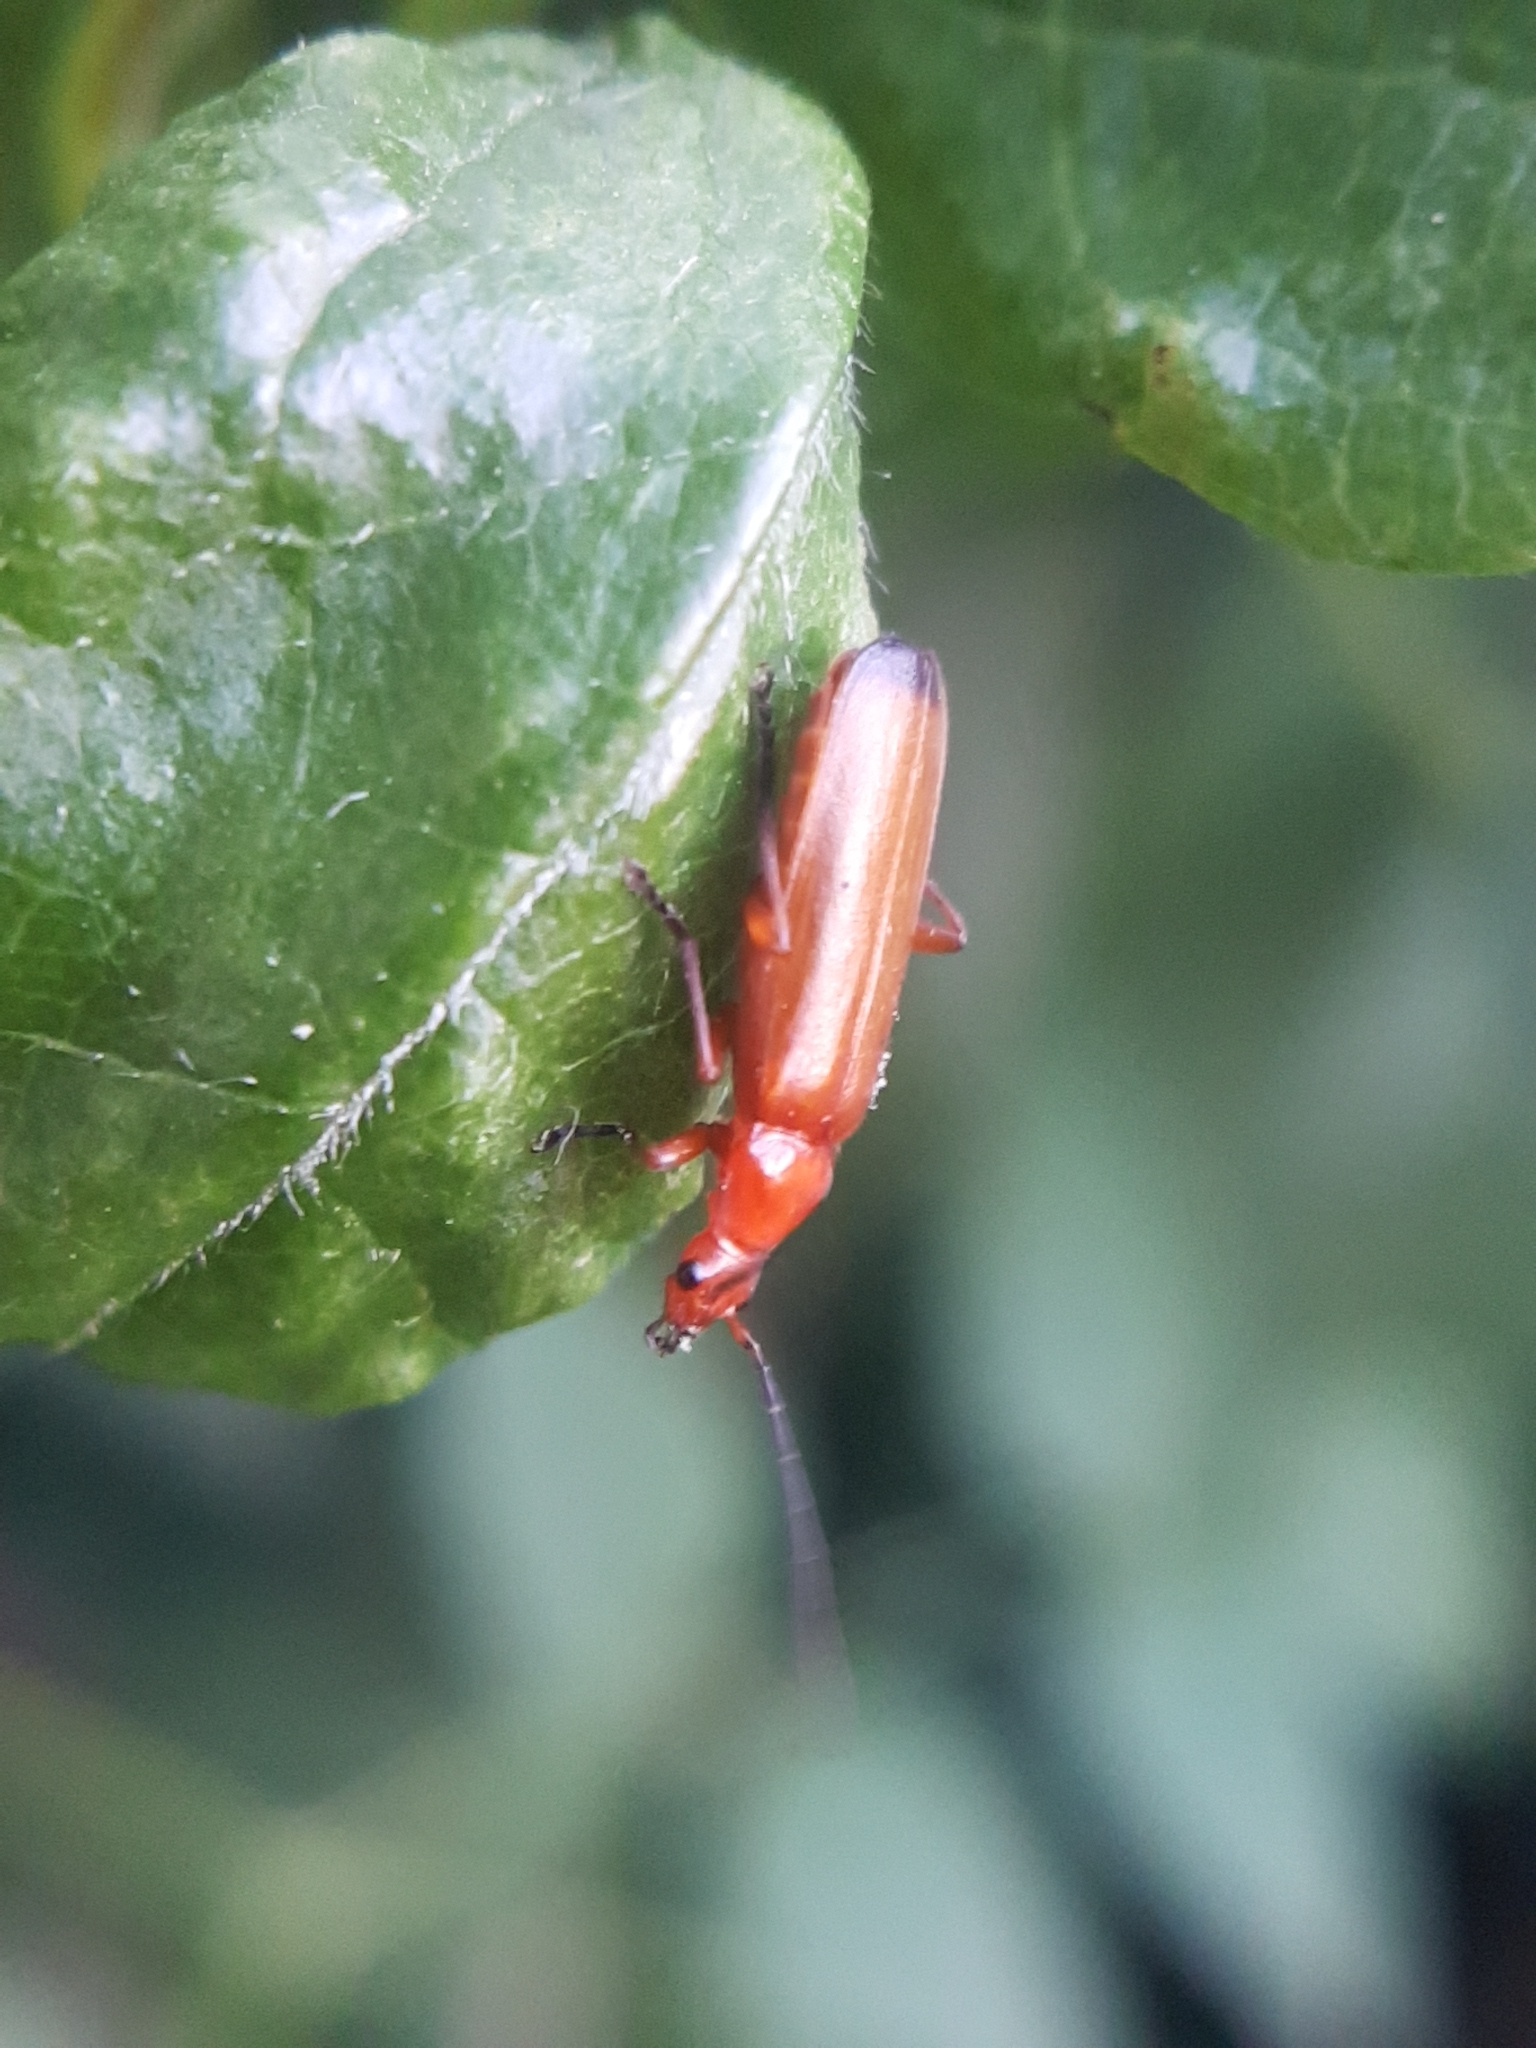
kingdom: Animalia
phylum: Arthropoda
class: Insecta
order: Coleoptera
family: Cantharidae
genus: Rhagonycha
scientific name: Rhagonycha fulva
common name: Common red soldier beetle
